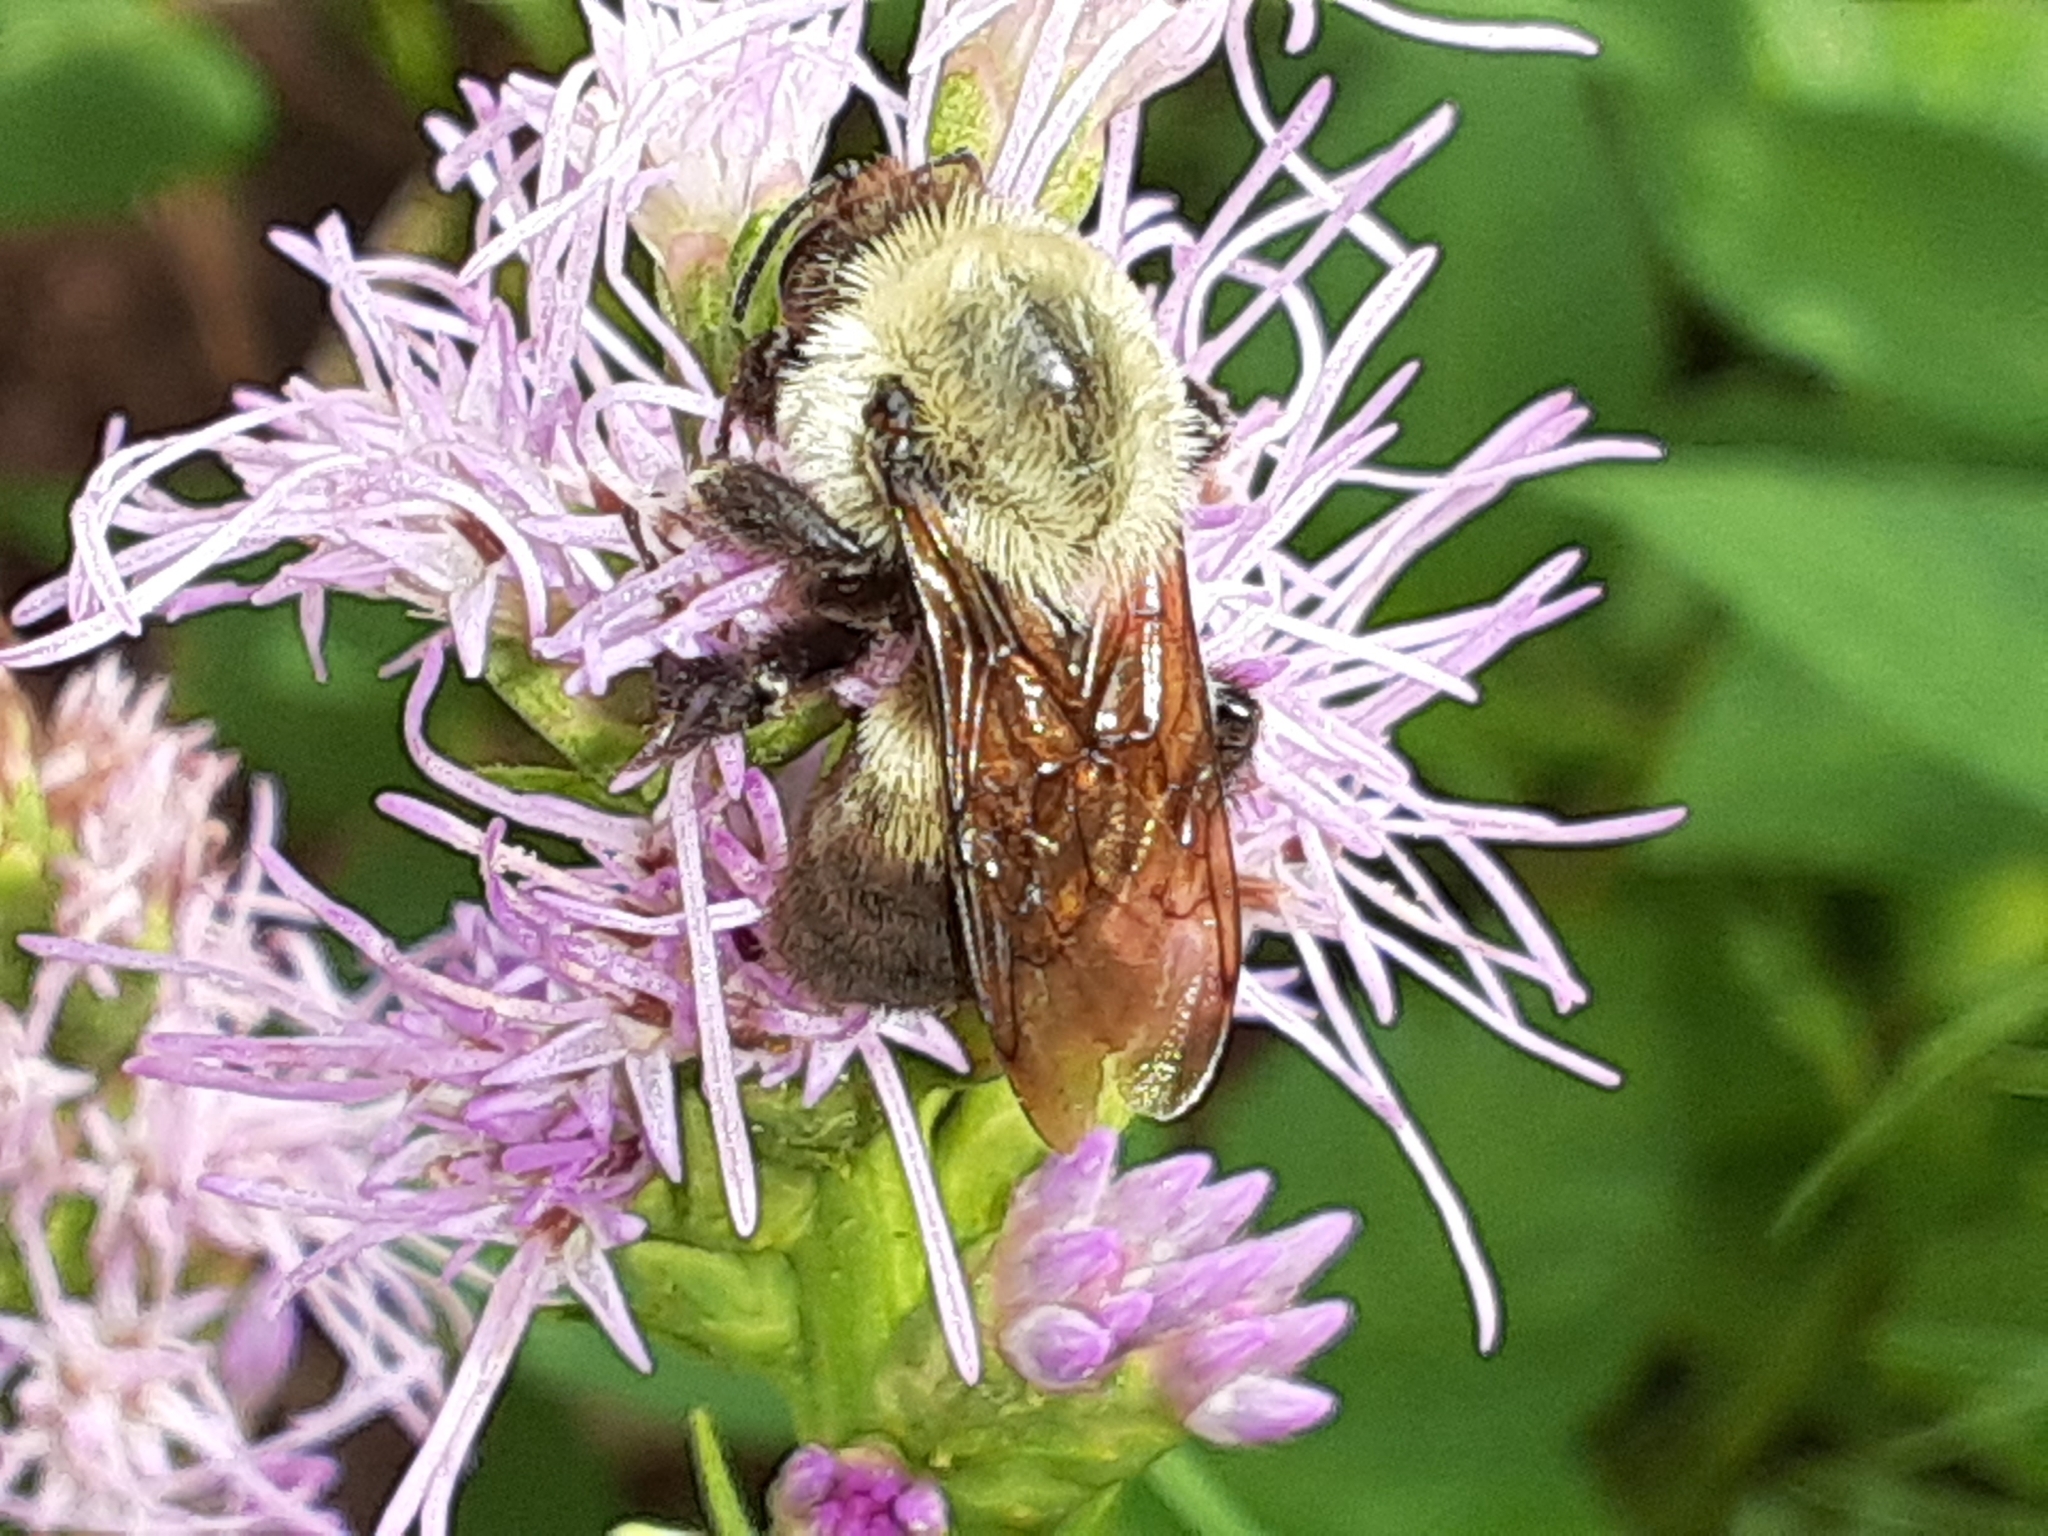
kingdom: Animalia
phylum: Arthropoda
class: Insecta
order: Hymenoptera
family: Apidae
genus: Bombus
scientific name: Bombus griseocollis
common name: Brown-belted bumble bee
